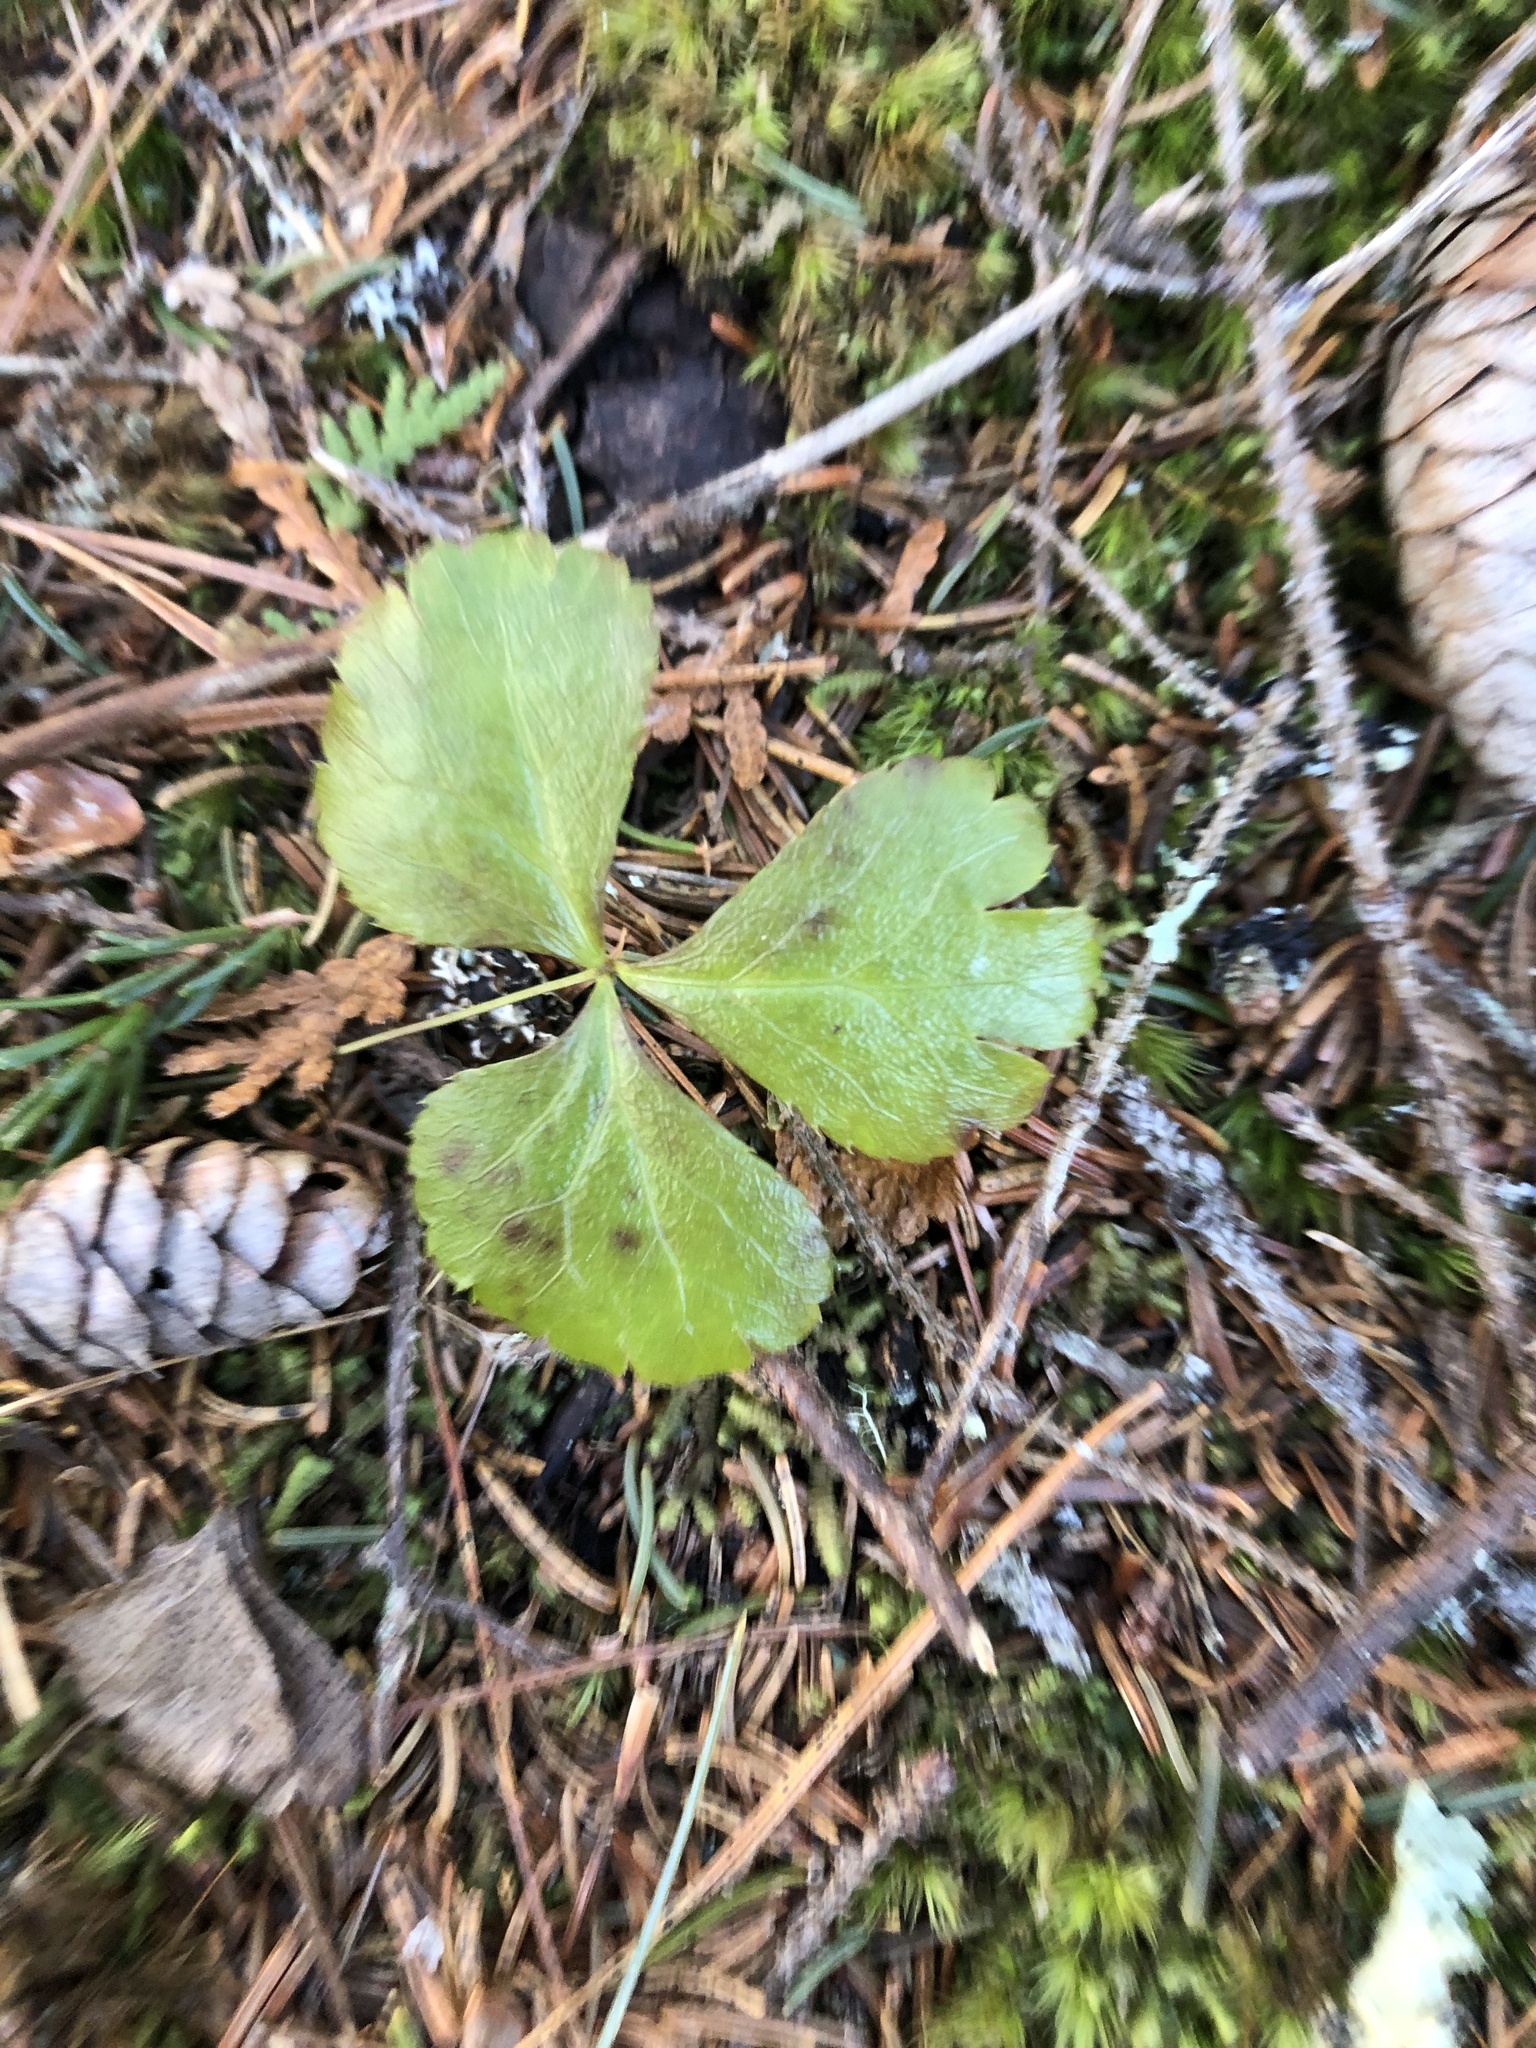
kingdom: Plantae
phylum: Tracheophyta
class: Magnoliopsida
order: Ranunculales
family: Ranunculaceae
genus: Coptis
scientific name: Coptis trifolia
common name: Canker-root
